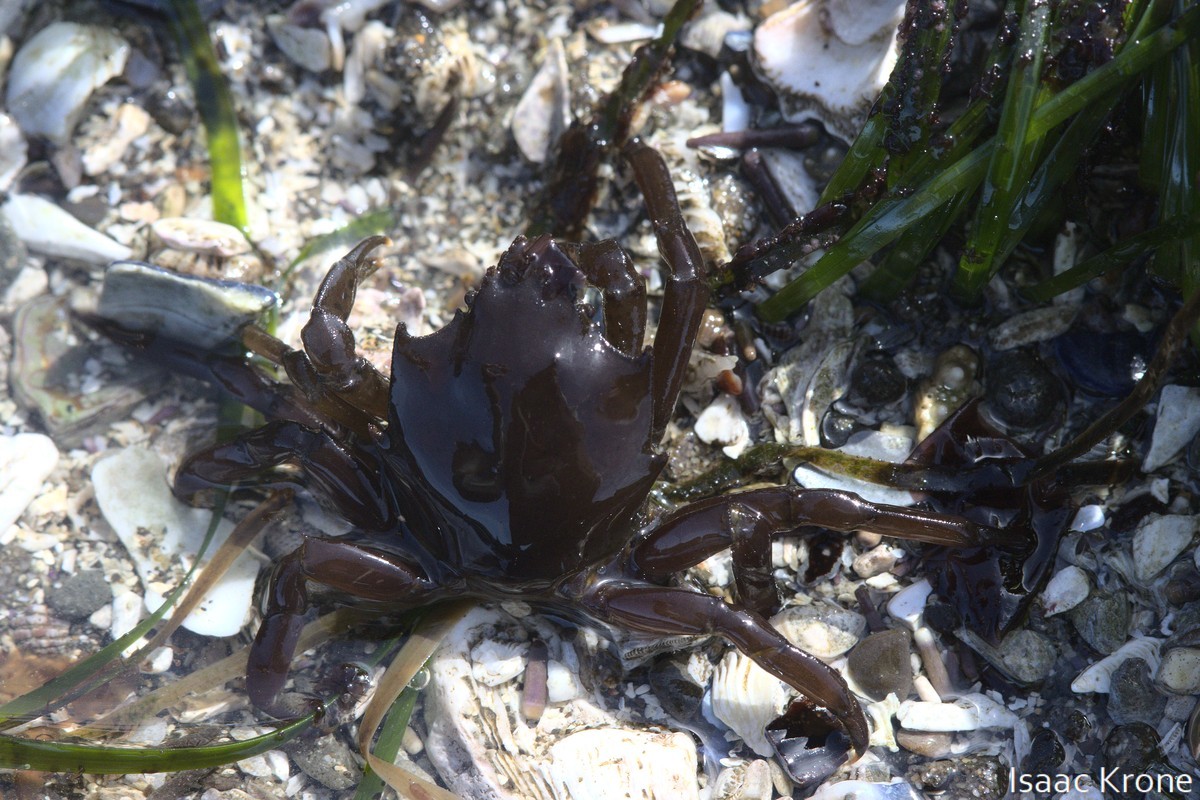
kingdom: Animalia
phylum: Arthropoda
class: Malacostraca
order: Decapoda
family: Epialtidae
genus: Pugettia
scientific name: Pugettia producta
